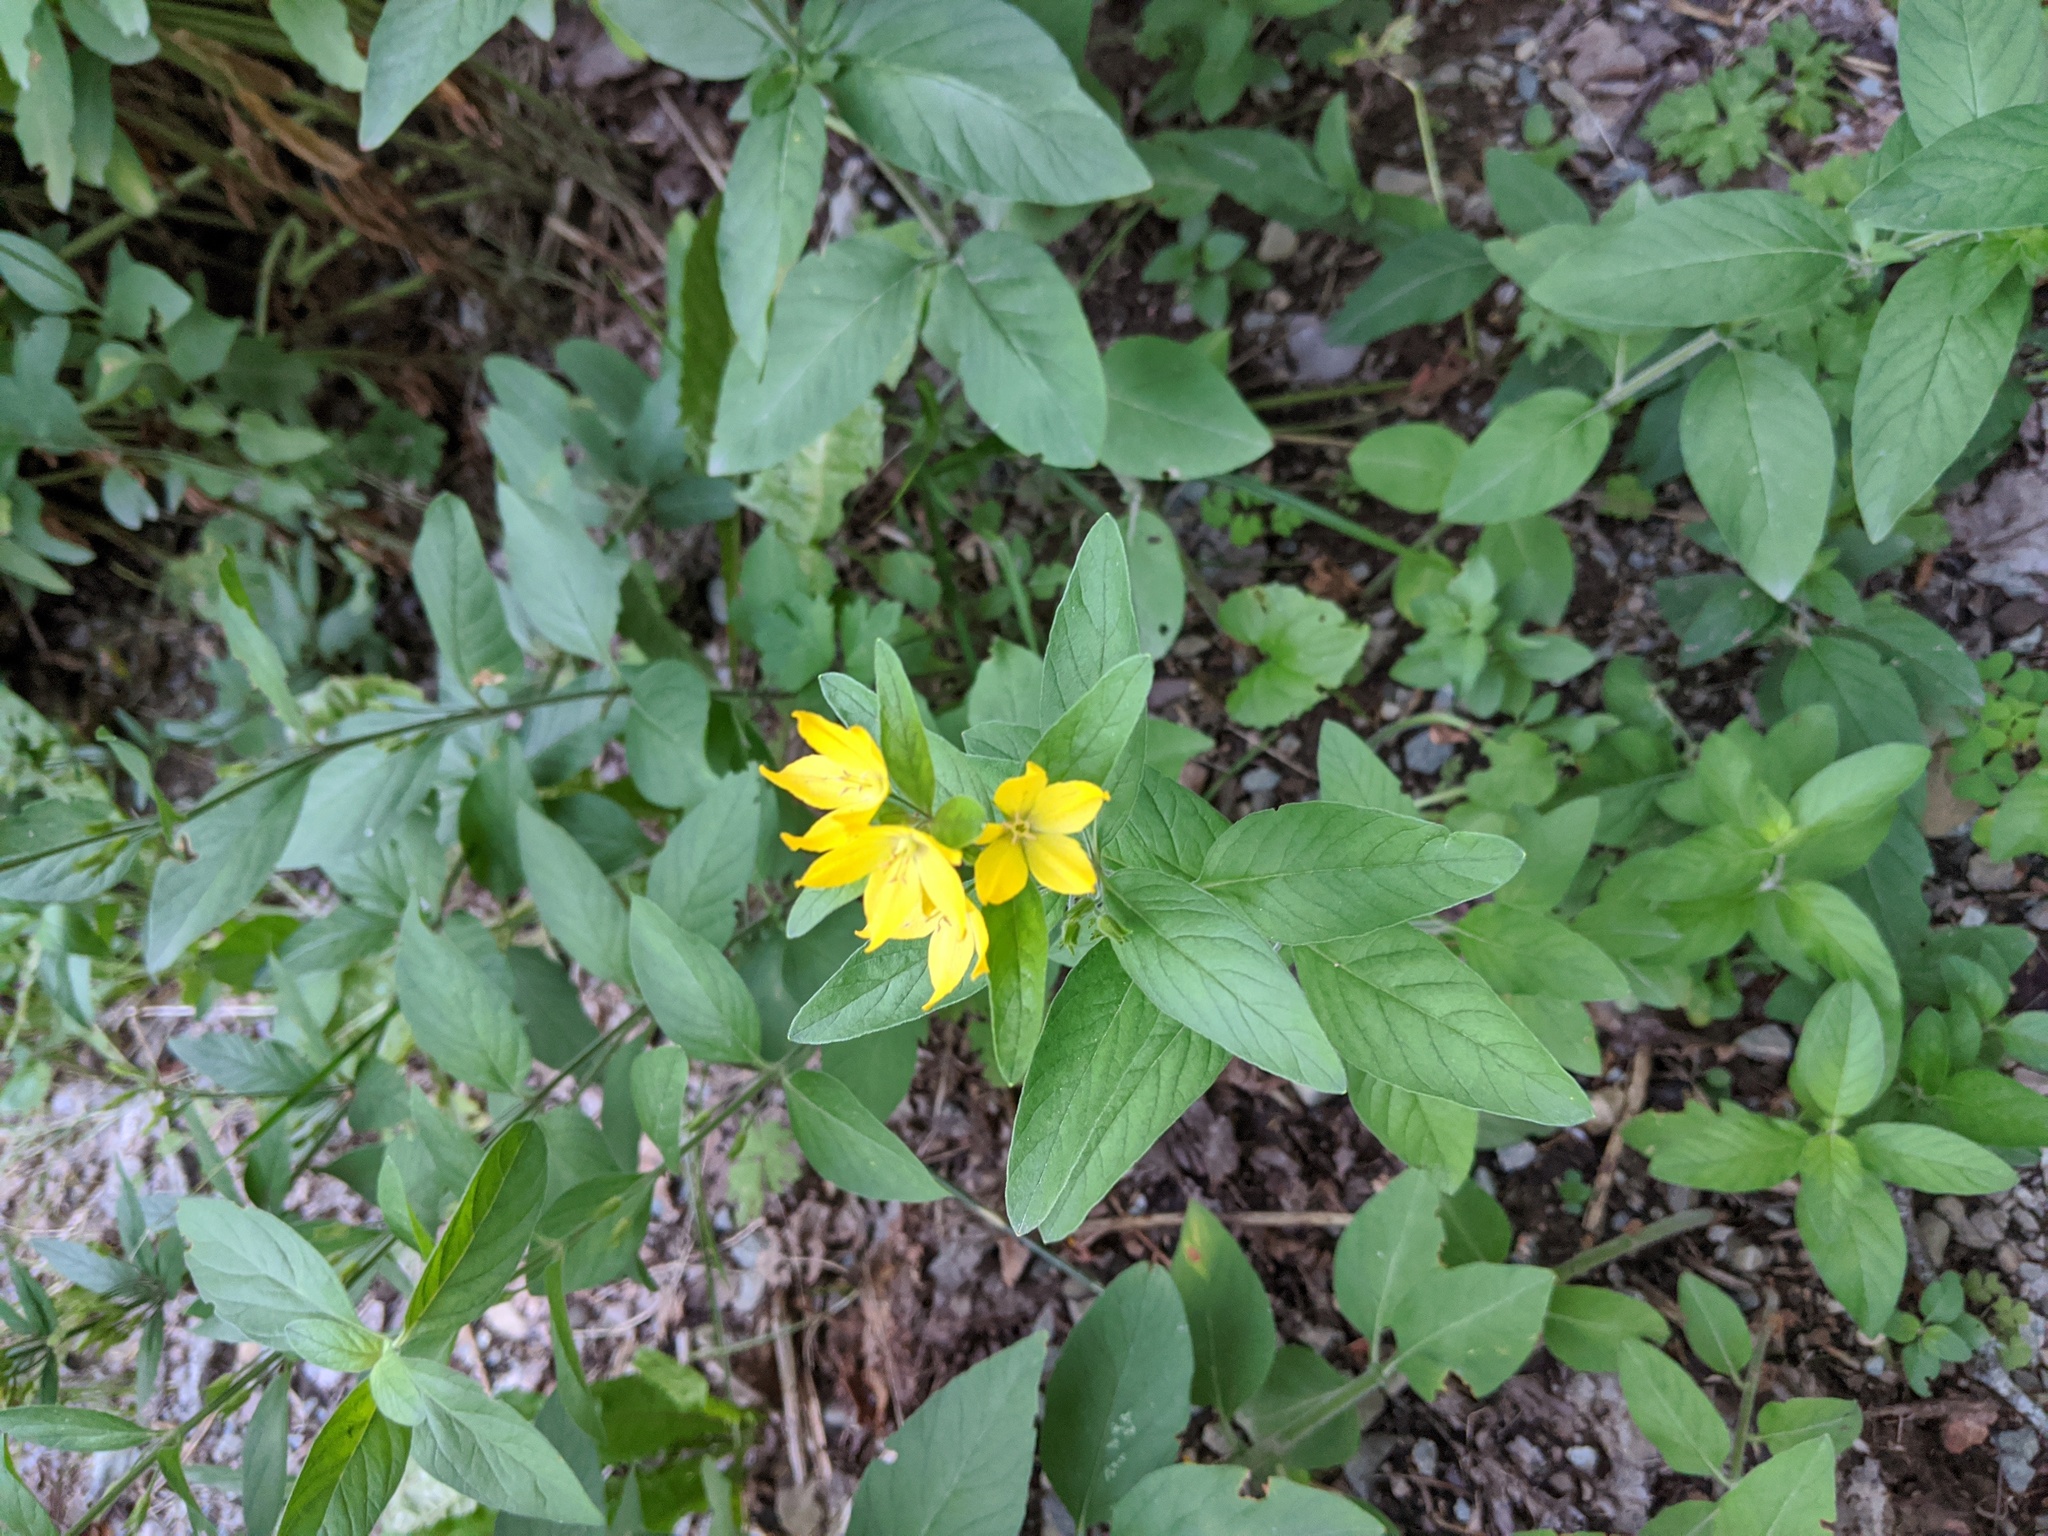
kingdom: Plantae
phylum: Tracheophyta
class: Magnoliopsida
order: Ericales
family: Primulaceae
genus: Lysimachia
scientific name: Lysimachia punctata
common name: Dotted loosestrife
